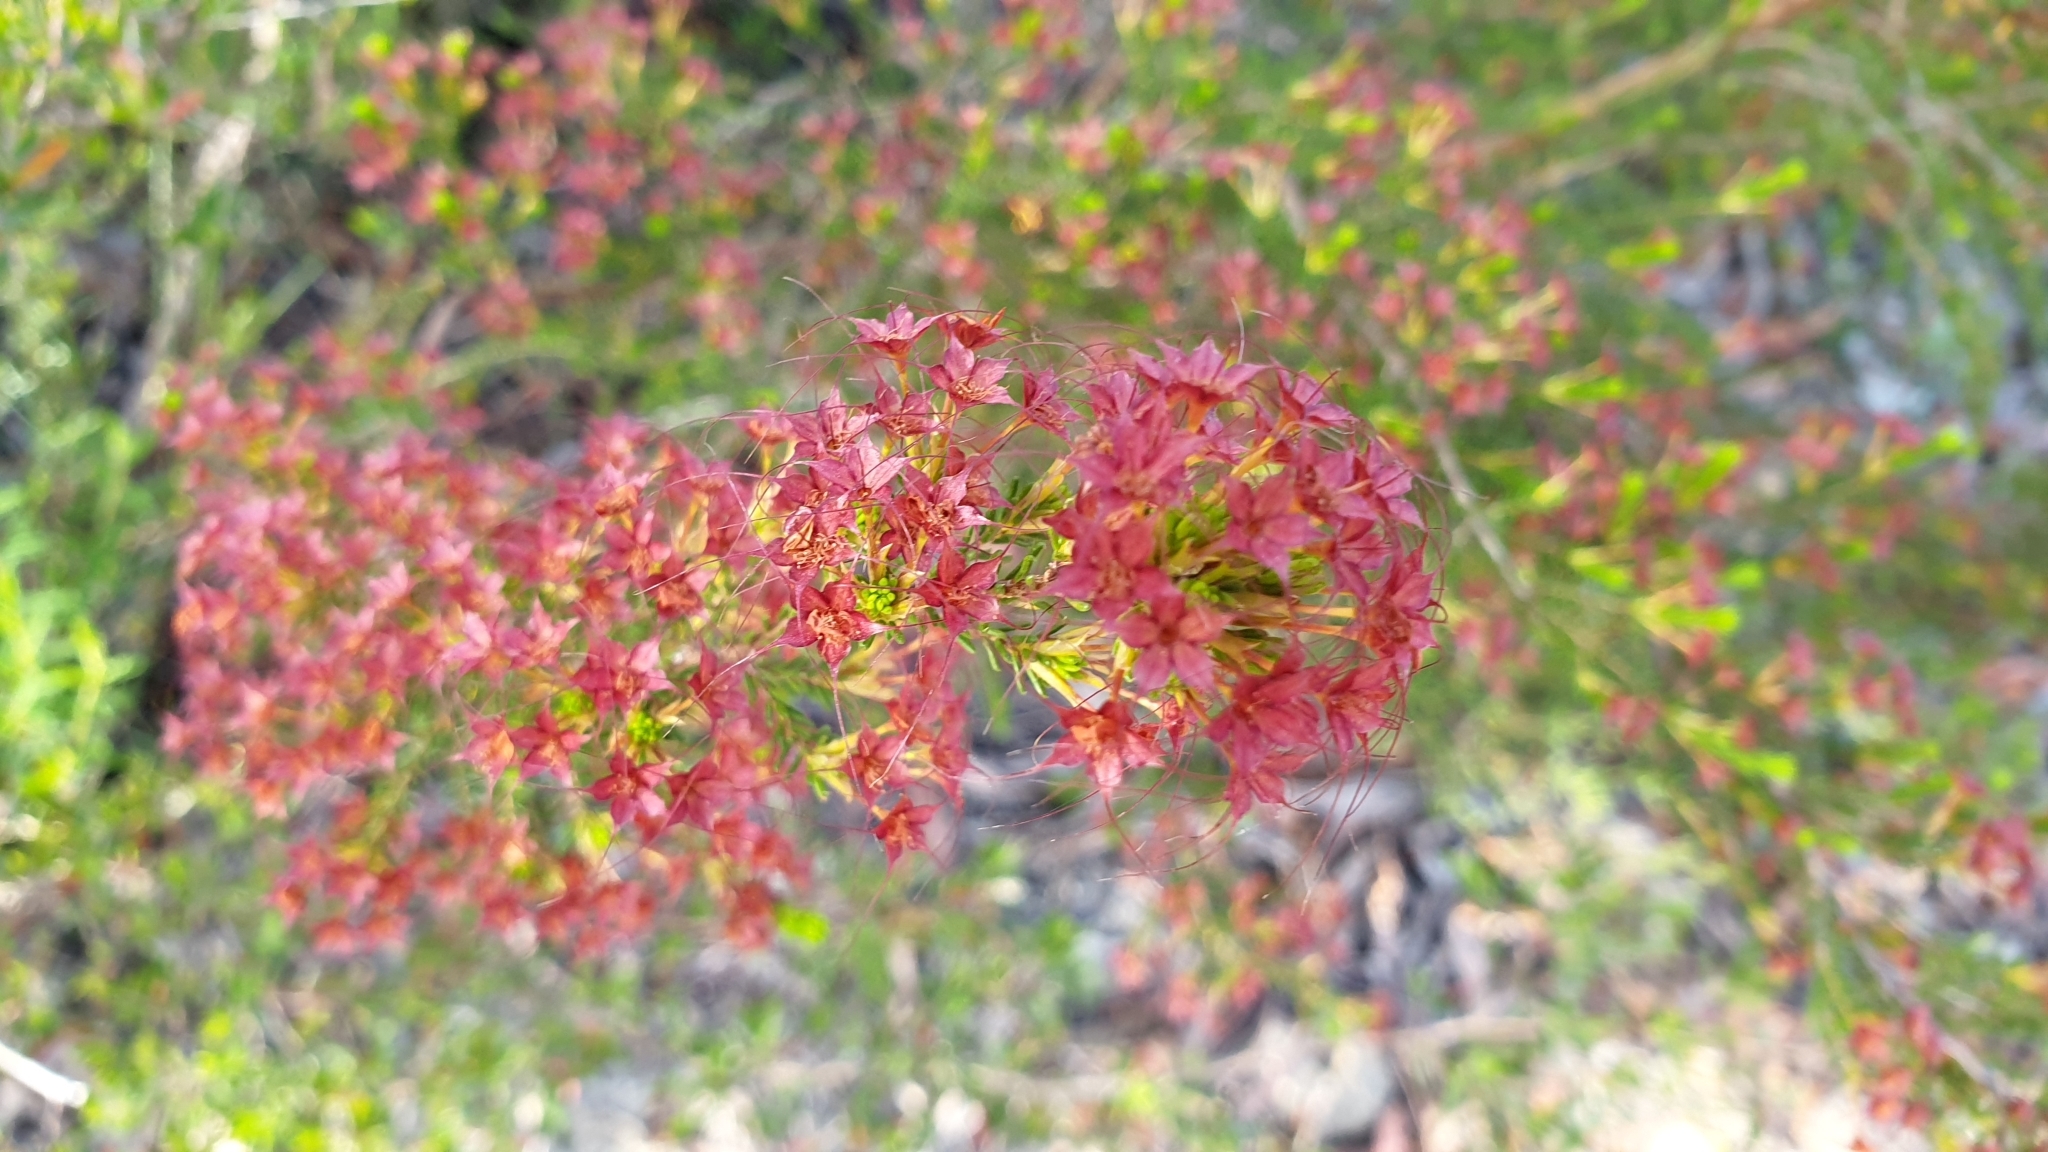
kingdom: Plantae
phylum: Tracheophyta
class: Magnoliopsida
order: Myrtales
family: Myrtaceae
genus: Calytrix
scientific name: Calytrix tetragona
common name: Common fringe myrtle
